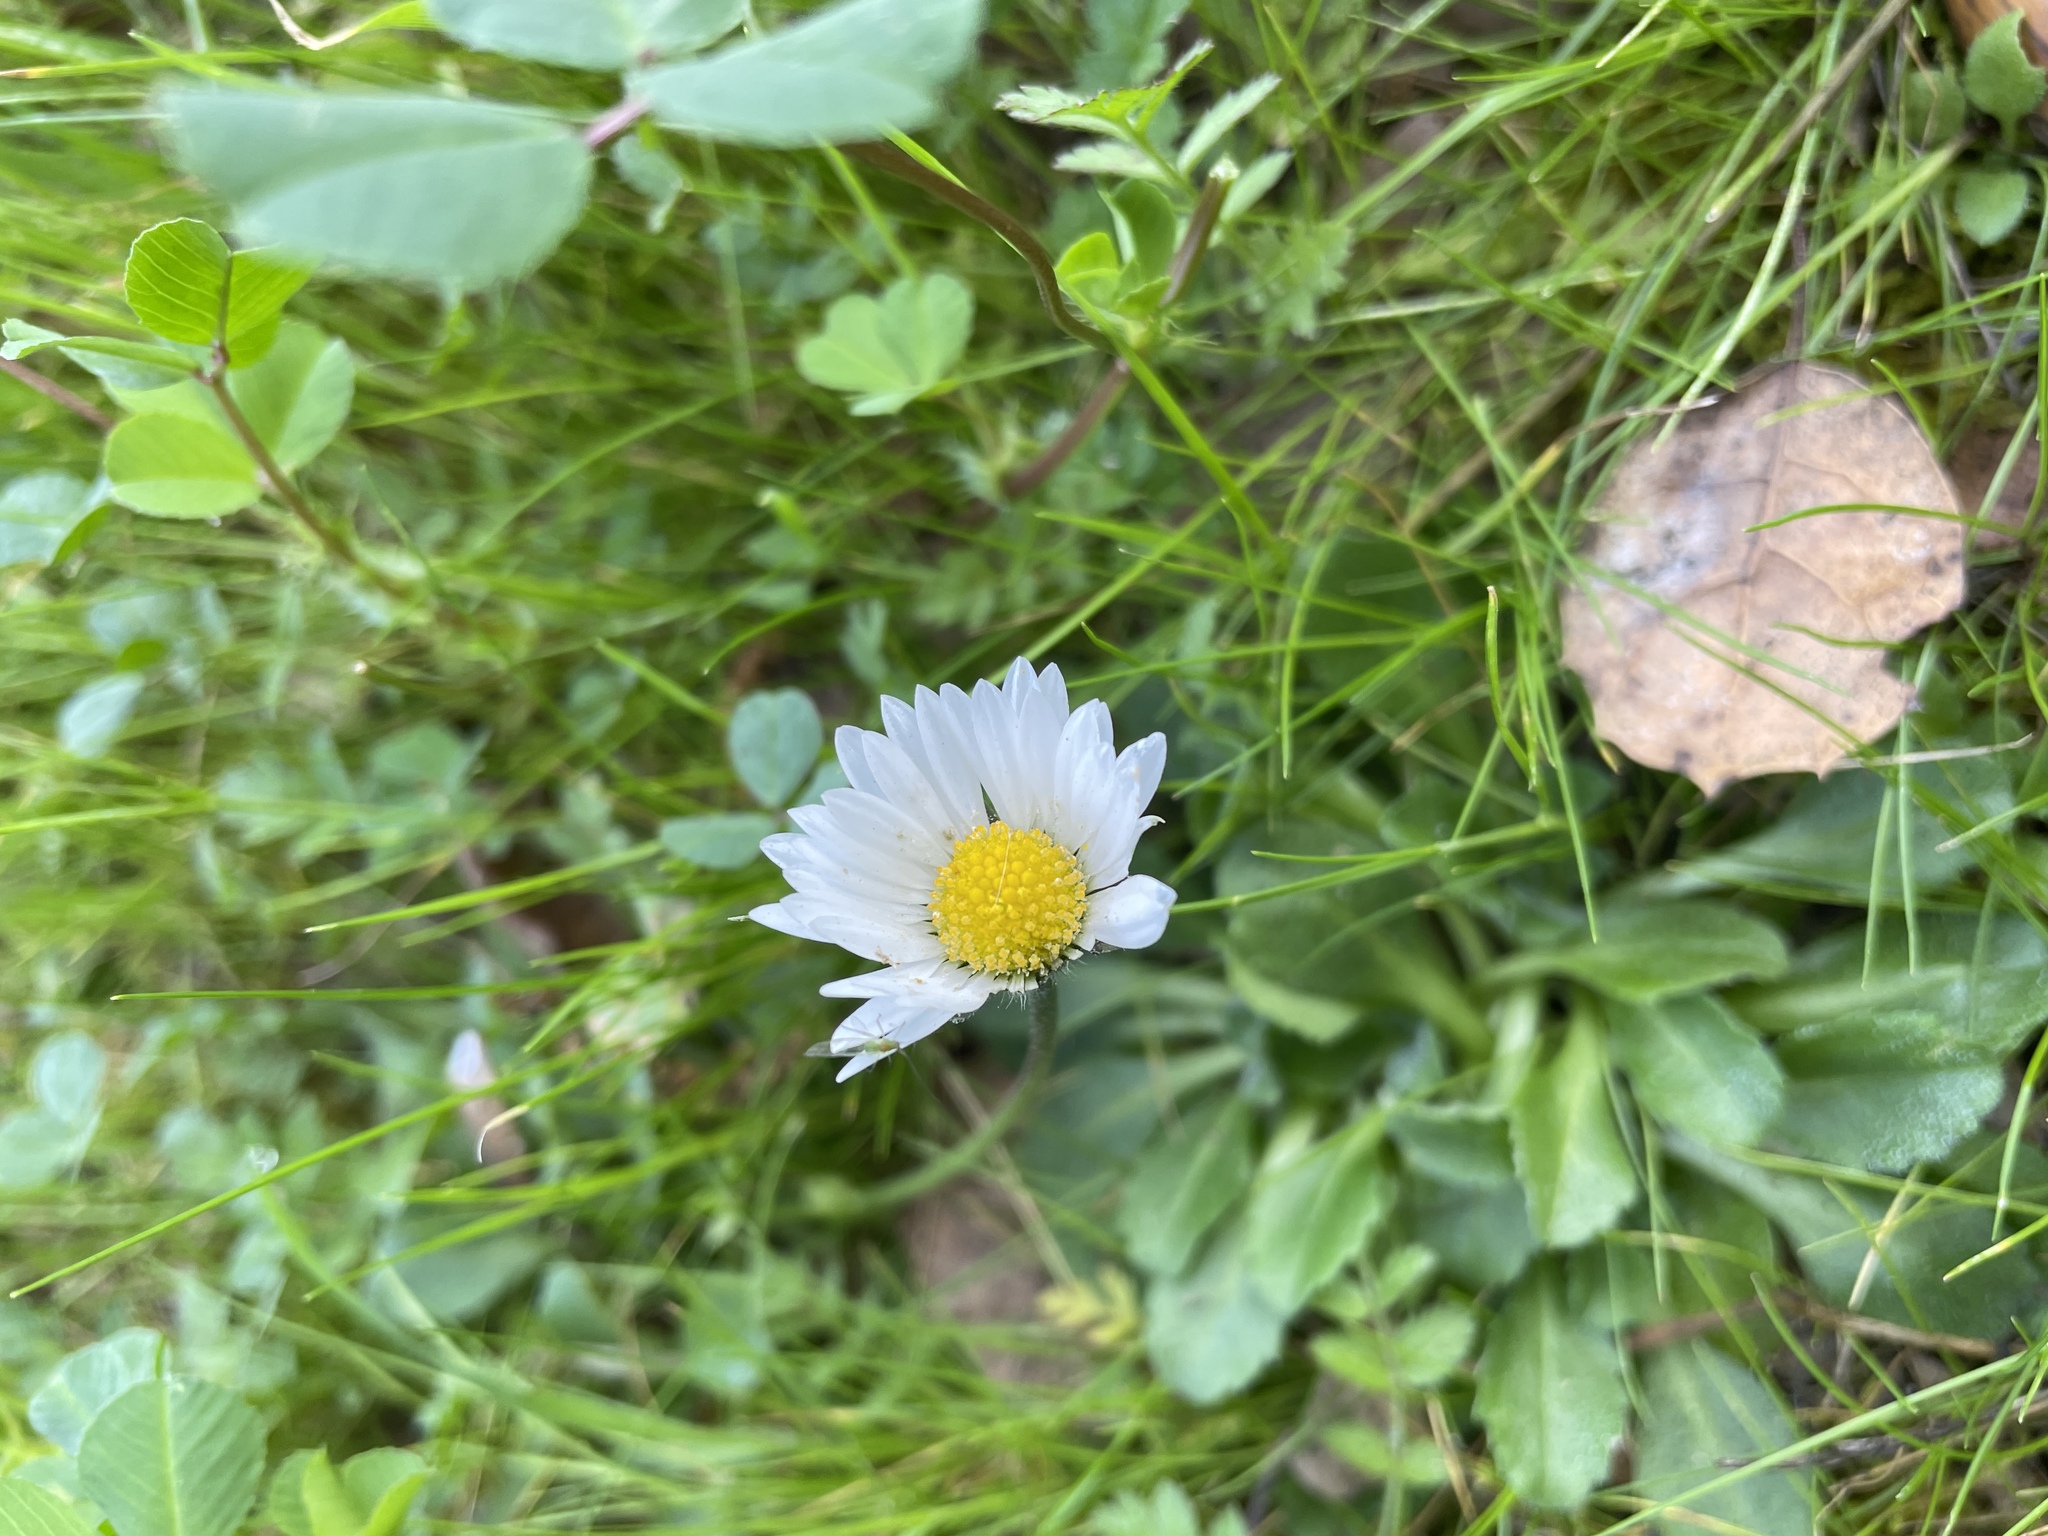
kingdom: Plantae
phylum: Tracheophyta
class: Magnoliopsida
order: Asterales
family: Asteraceae
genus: Bellis
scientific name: Bellis perennis
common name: Lawndaisy
